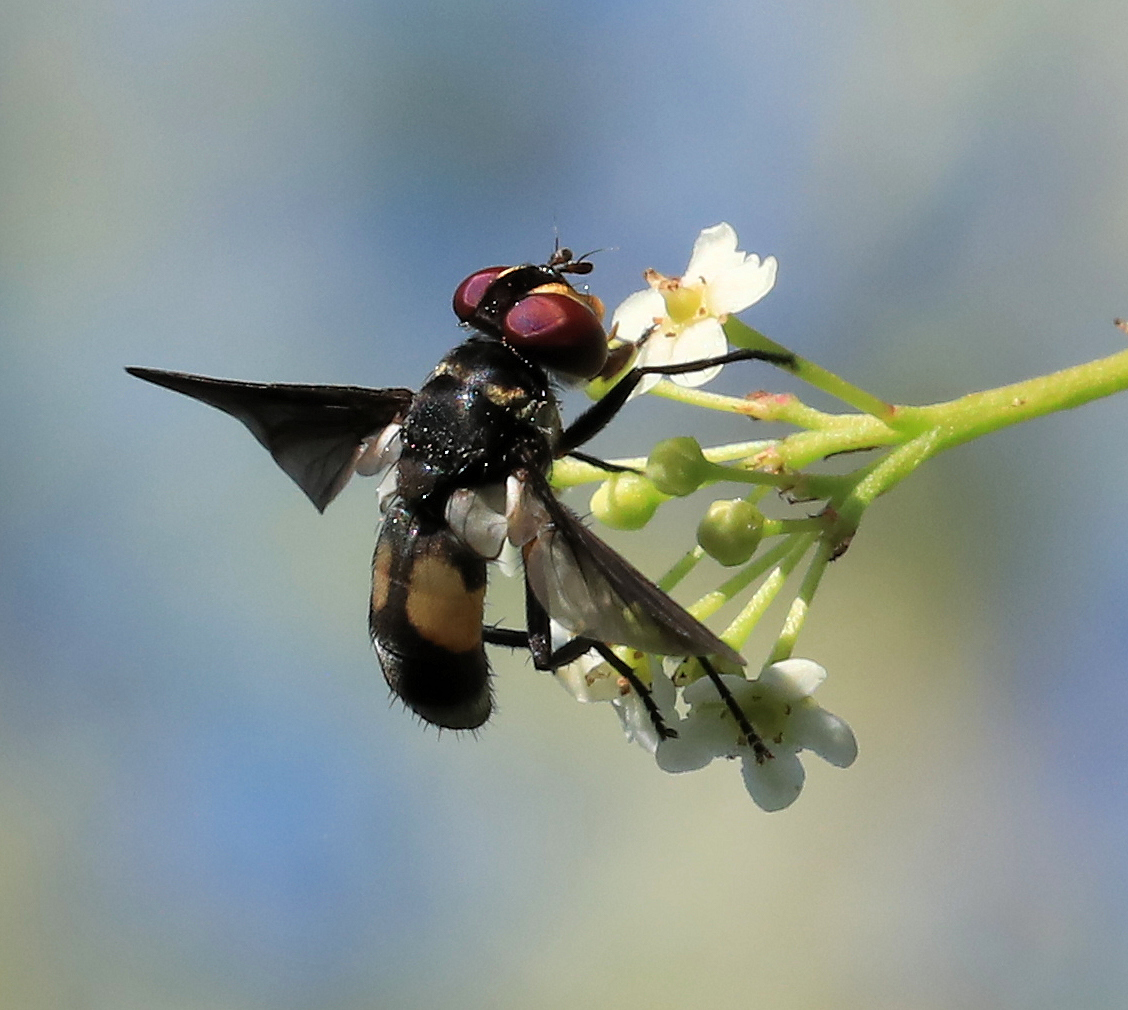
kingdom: Animalia
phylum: Arthropoda
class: Insecta
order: Diptera
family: Tachinidae
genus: Bogosia
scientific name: Bogosia bequaerti
